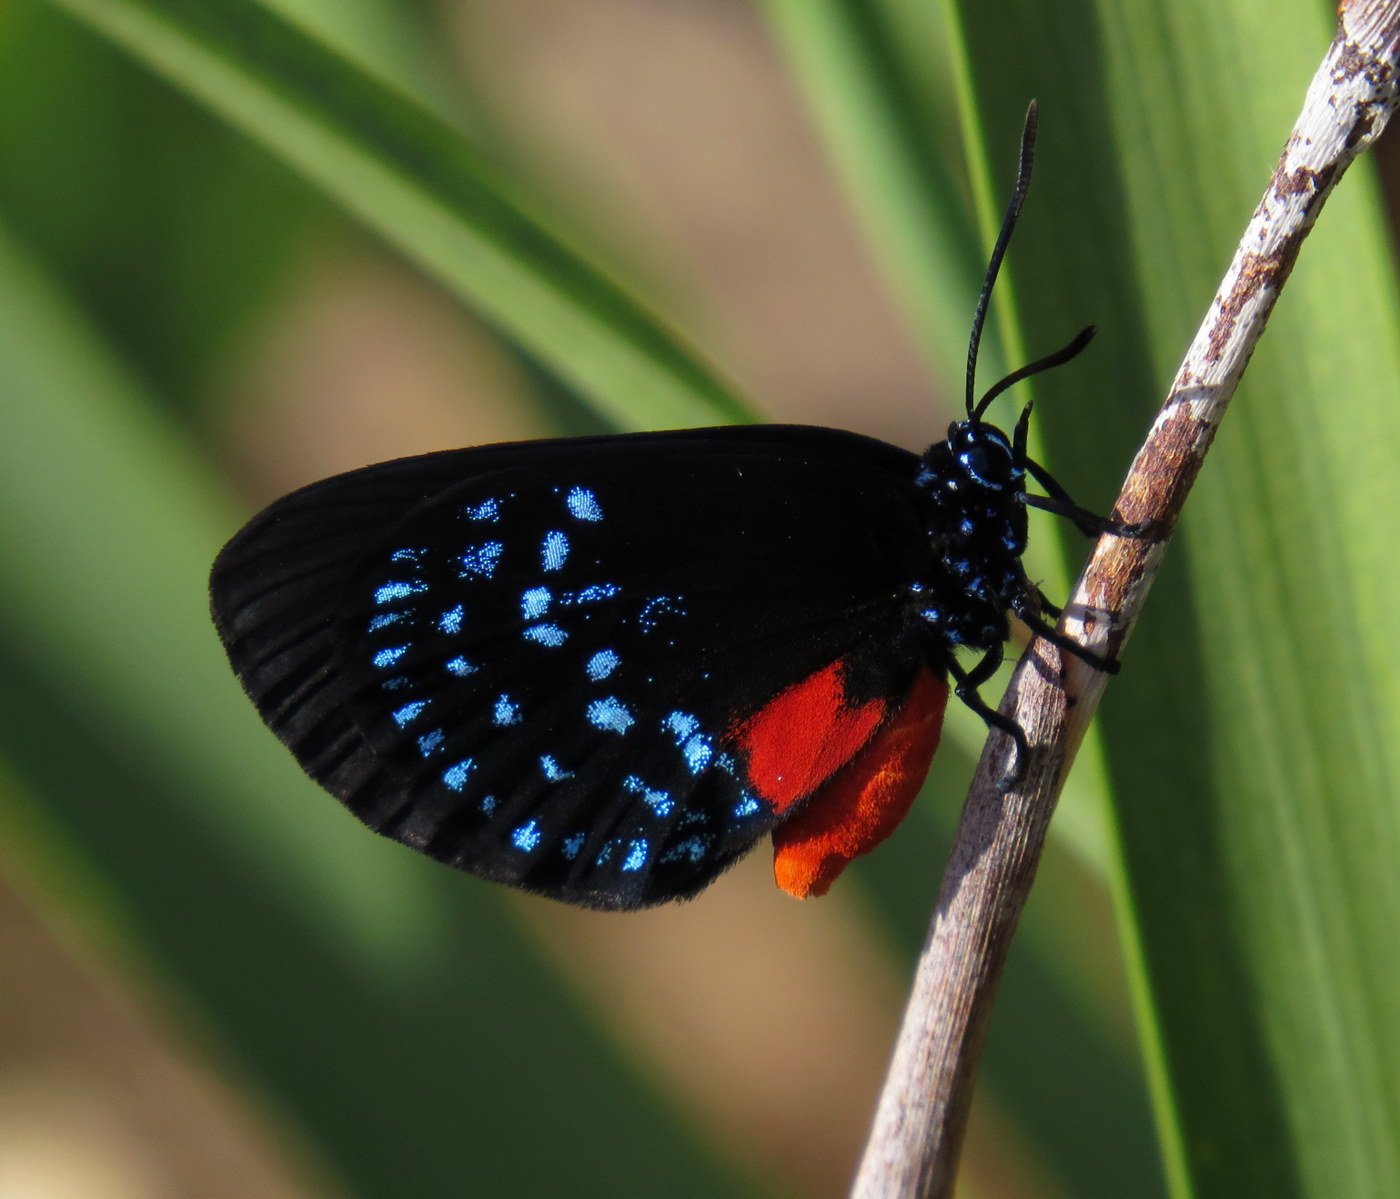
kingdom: Animalia
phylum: Arthropoda
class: Insecta
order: Lepidoptera
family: Lycaenidae
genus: Eumaeus
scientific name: Eumaeus atala
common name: Atala
